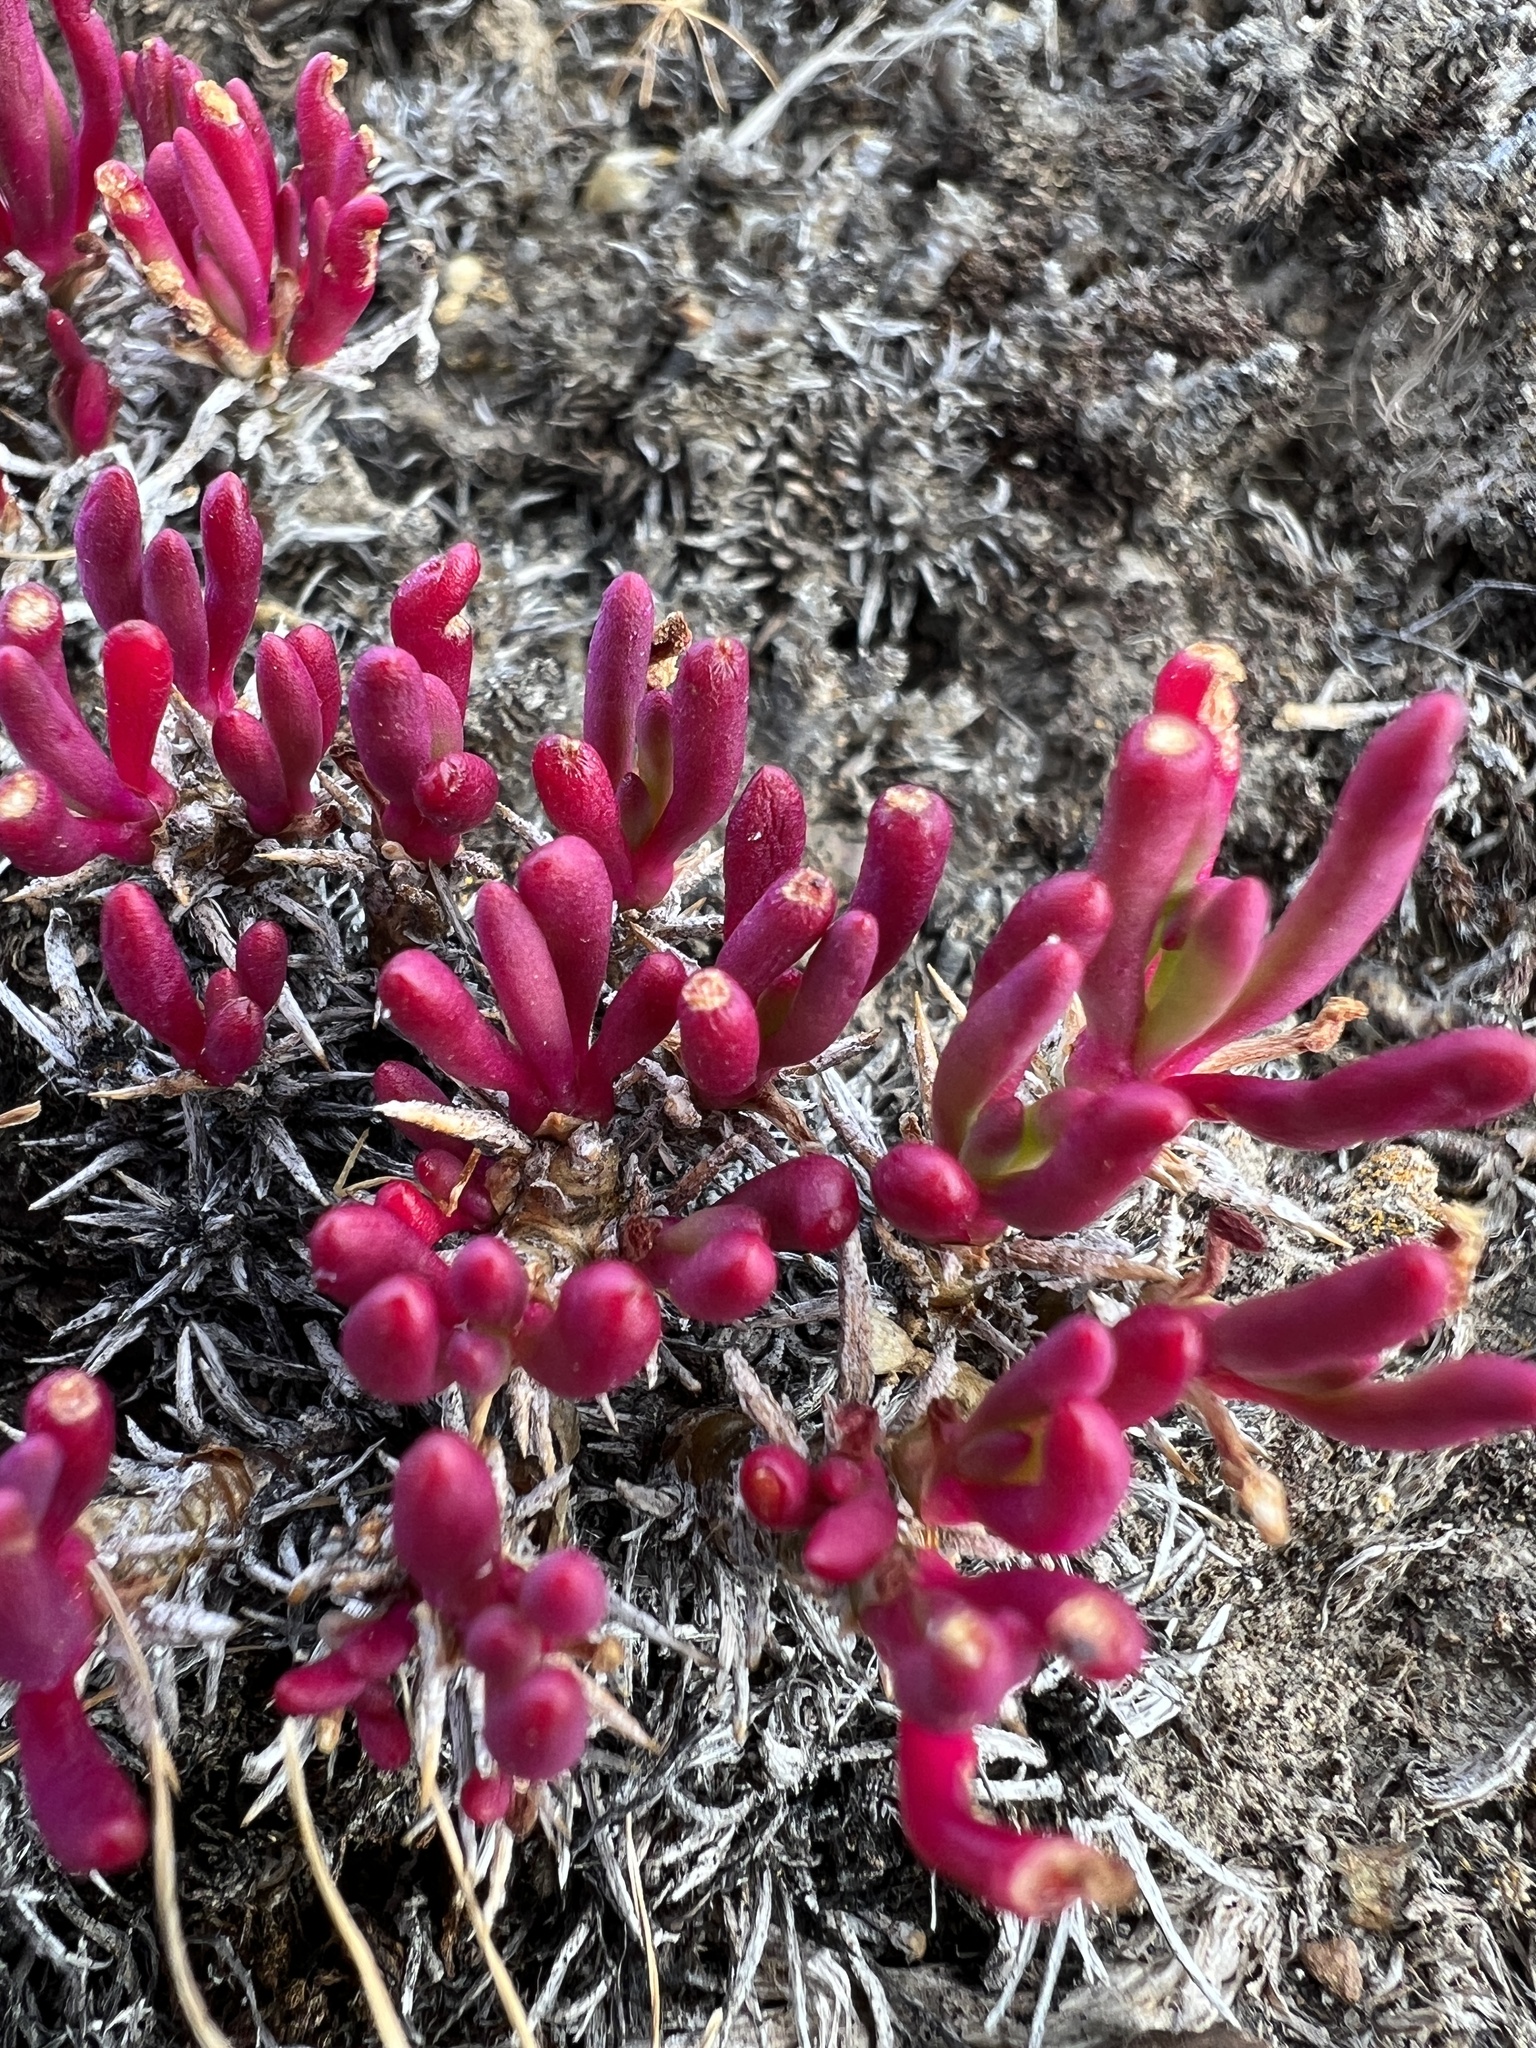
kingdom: Plantae
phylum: Tracheophyta
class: Magnoliopsida
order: Caryophyllales
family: Montiaceae
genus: Phemeranthus
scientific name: Phemeranthus spinescens
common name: Spiny fameflower
